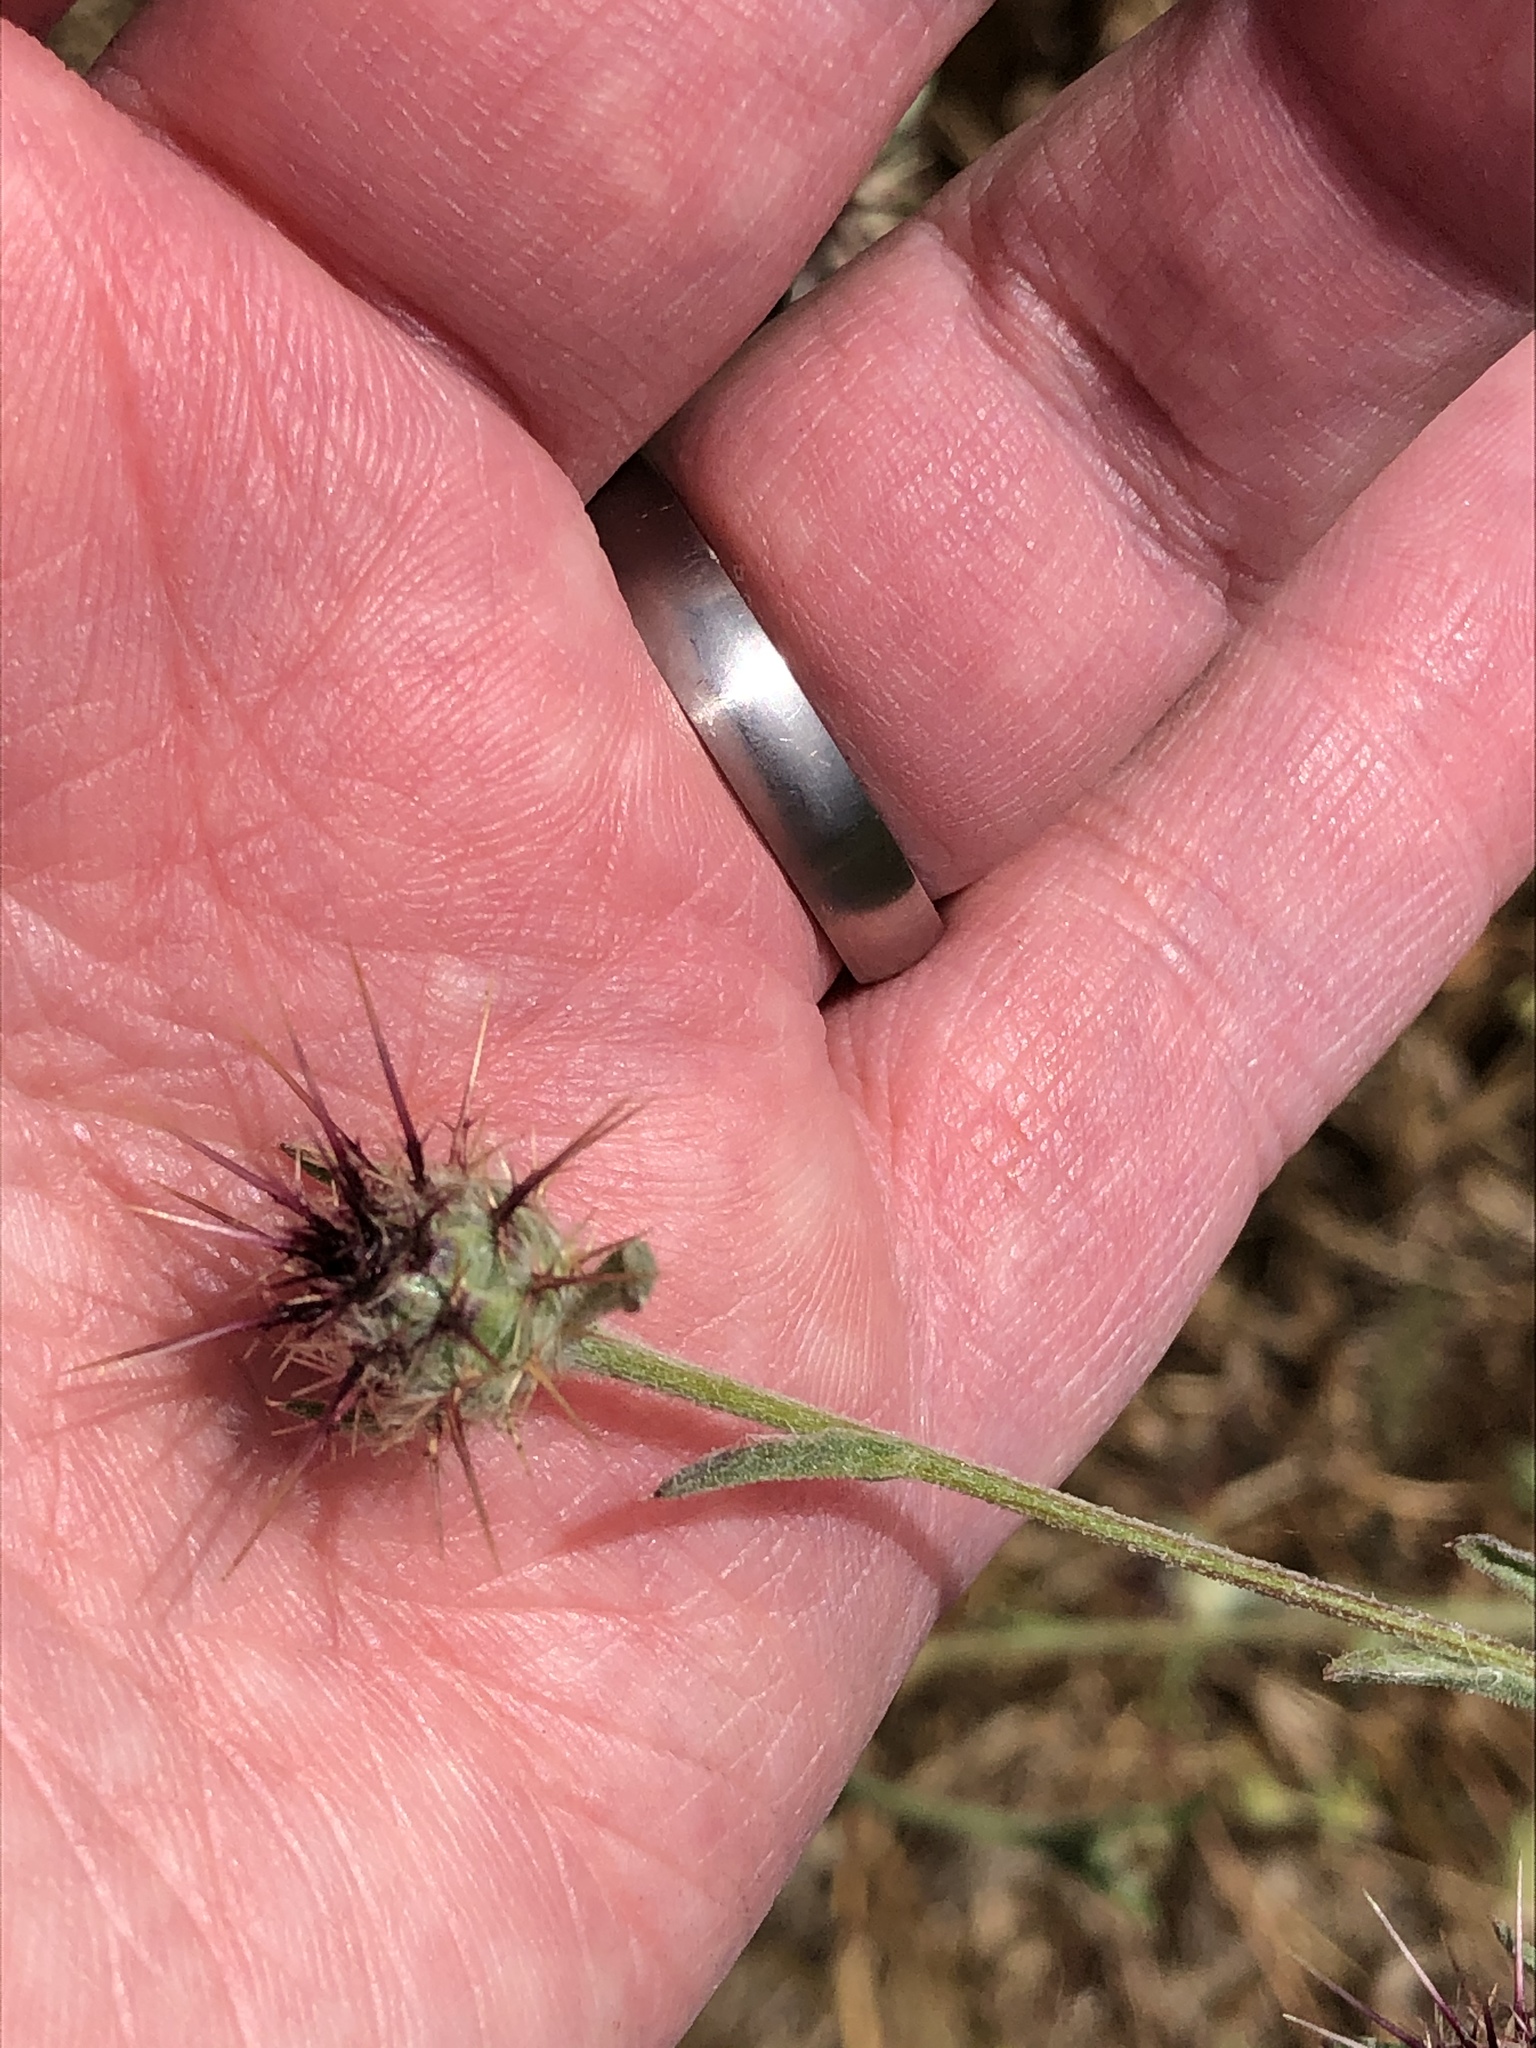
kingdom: Plantae
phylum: Tracheophyta
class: Magnoliopsida
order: Asterales
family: Asteraceae
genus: Centaurea
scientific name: Centaurea melitensis
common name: Maltese star-thistle
